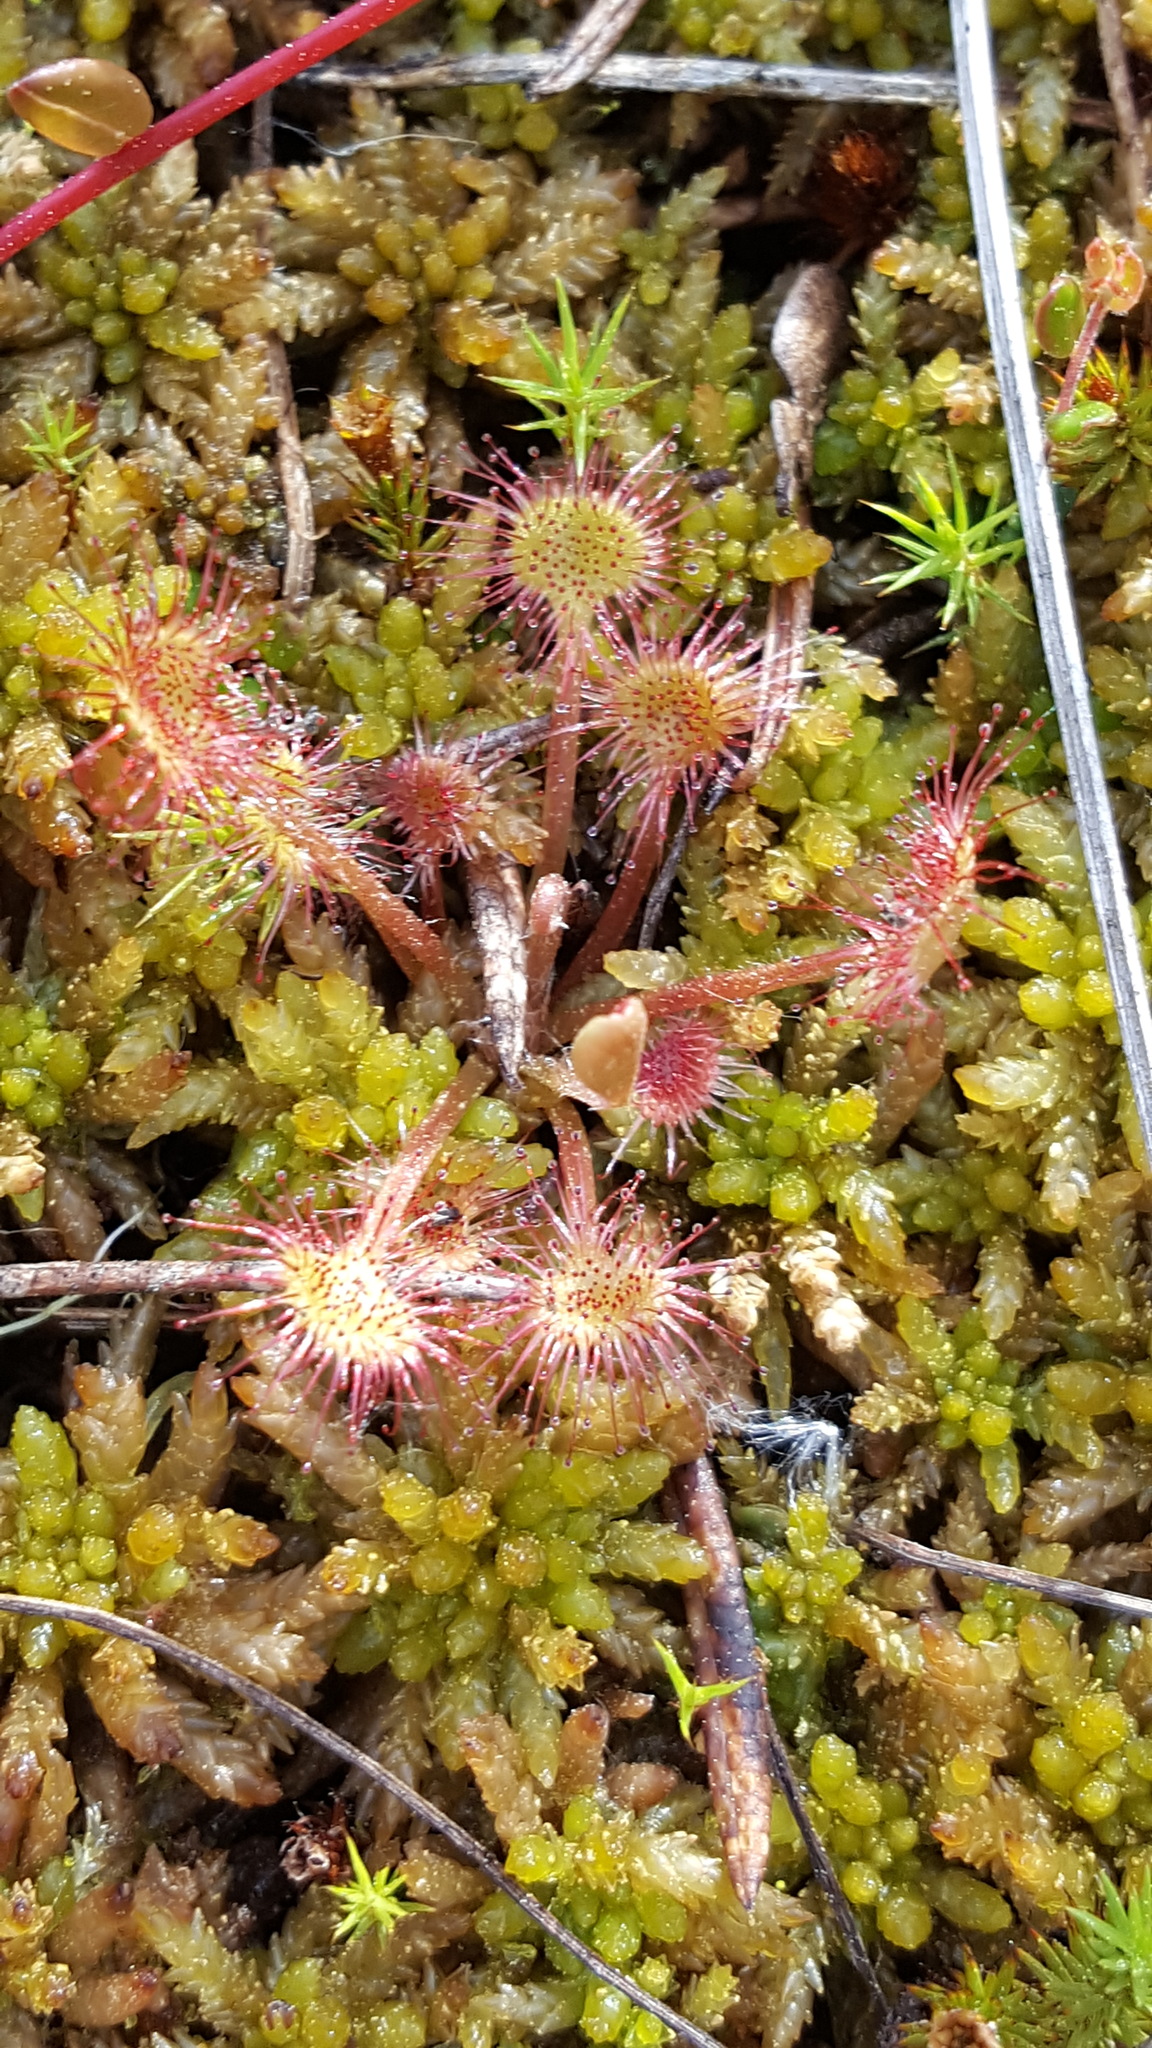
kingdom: Plantae
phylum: Tracheophyta
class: Magnoliopsida
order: Caryophyllales
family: Droseraceae
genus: Drosera
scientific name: Drosera rotundifolia
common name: Round-leaved sundew
